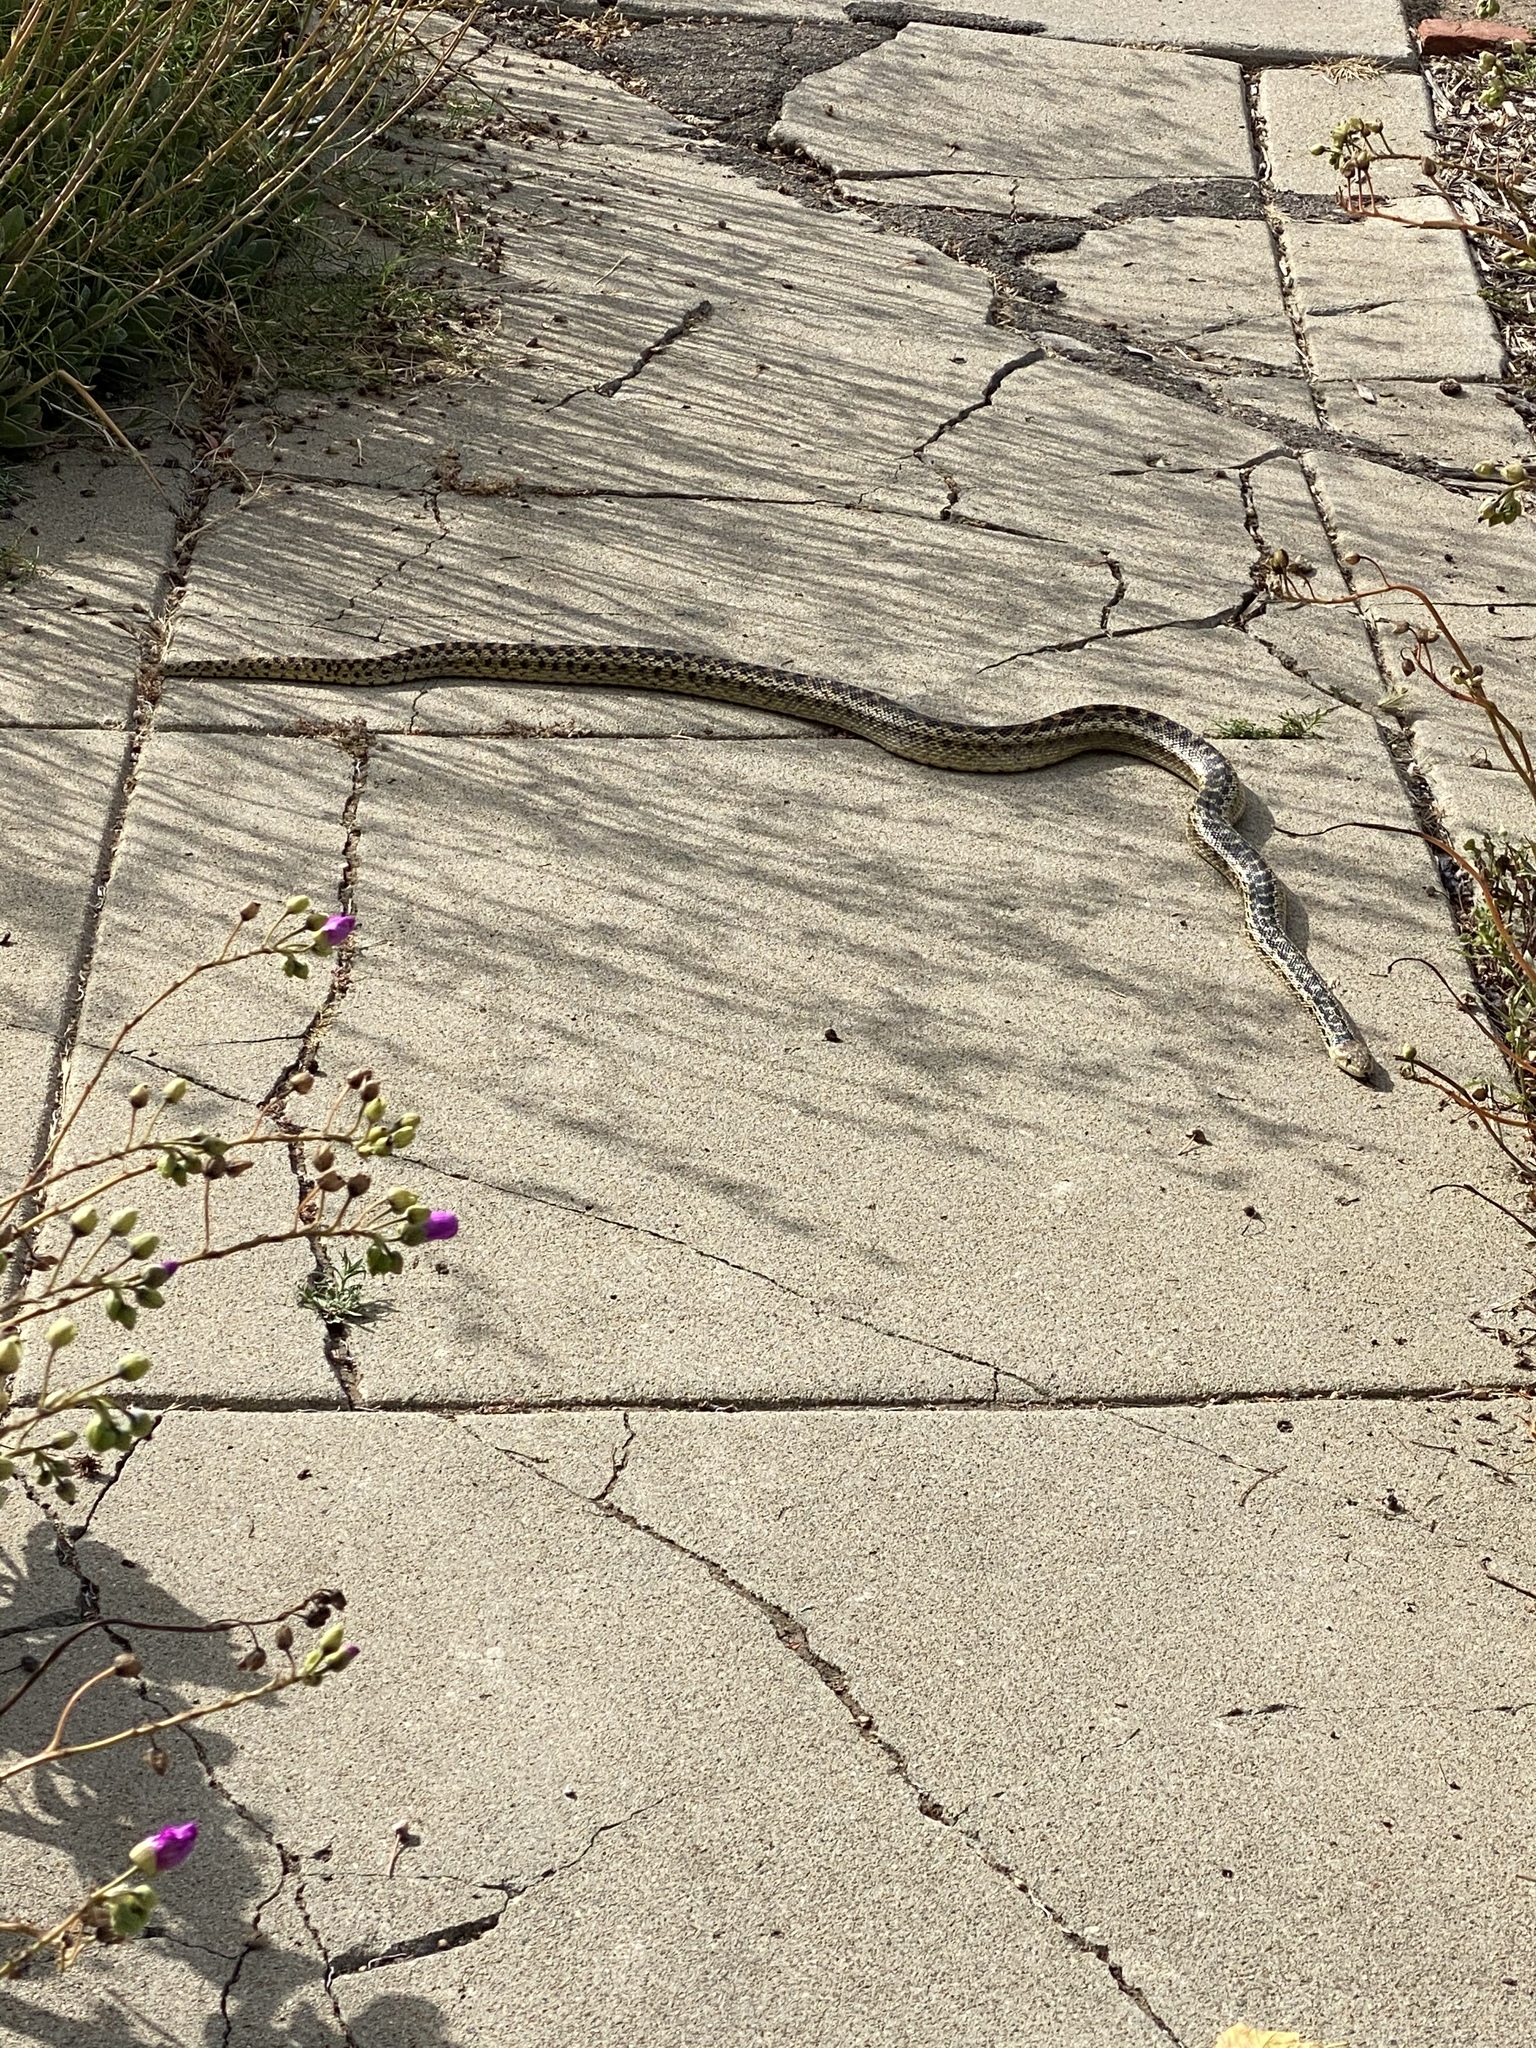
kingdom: Animalia
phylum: Chordata
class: Squamata
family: Colubridae
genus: Pituophis
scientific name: Pituophis catenifer
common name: Gopher snake
